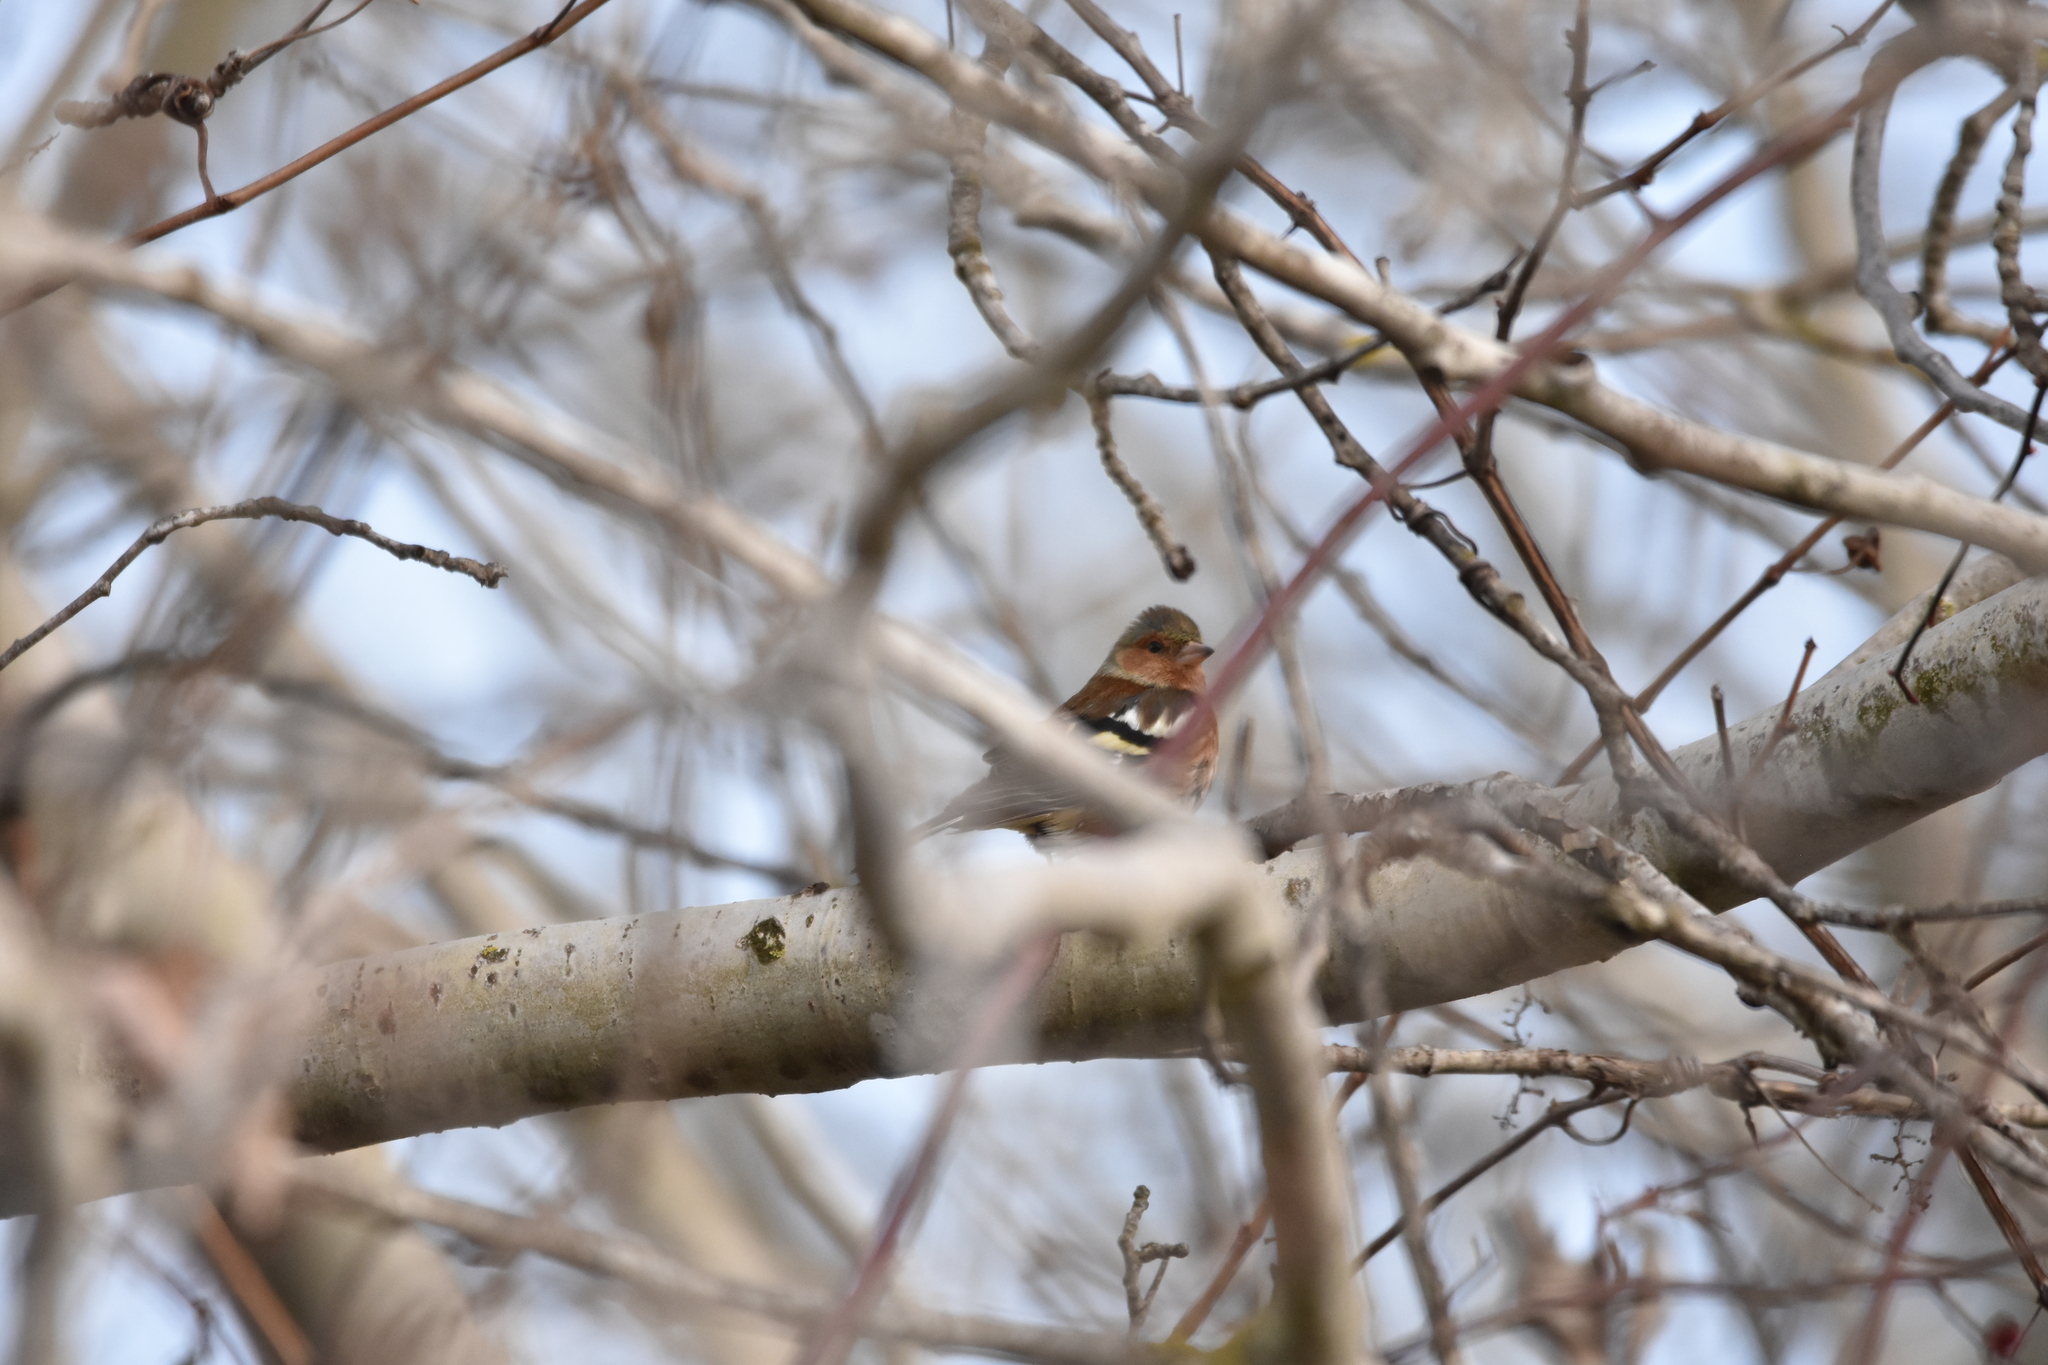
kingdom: Animalia
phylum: Chordata
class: Aves
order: Passeriformes
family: Fringillidae
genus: Fringilla
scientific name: Fringilla coelebs
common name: Common chaffinch
